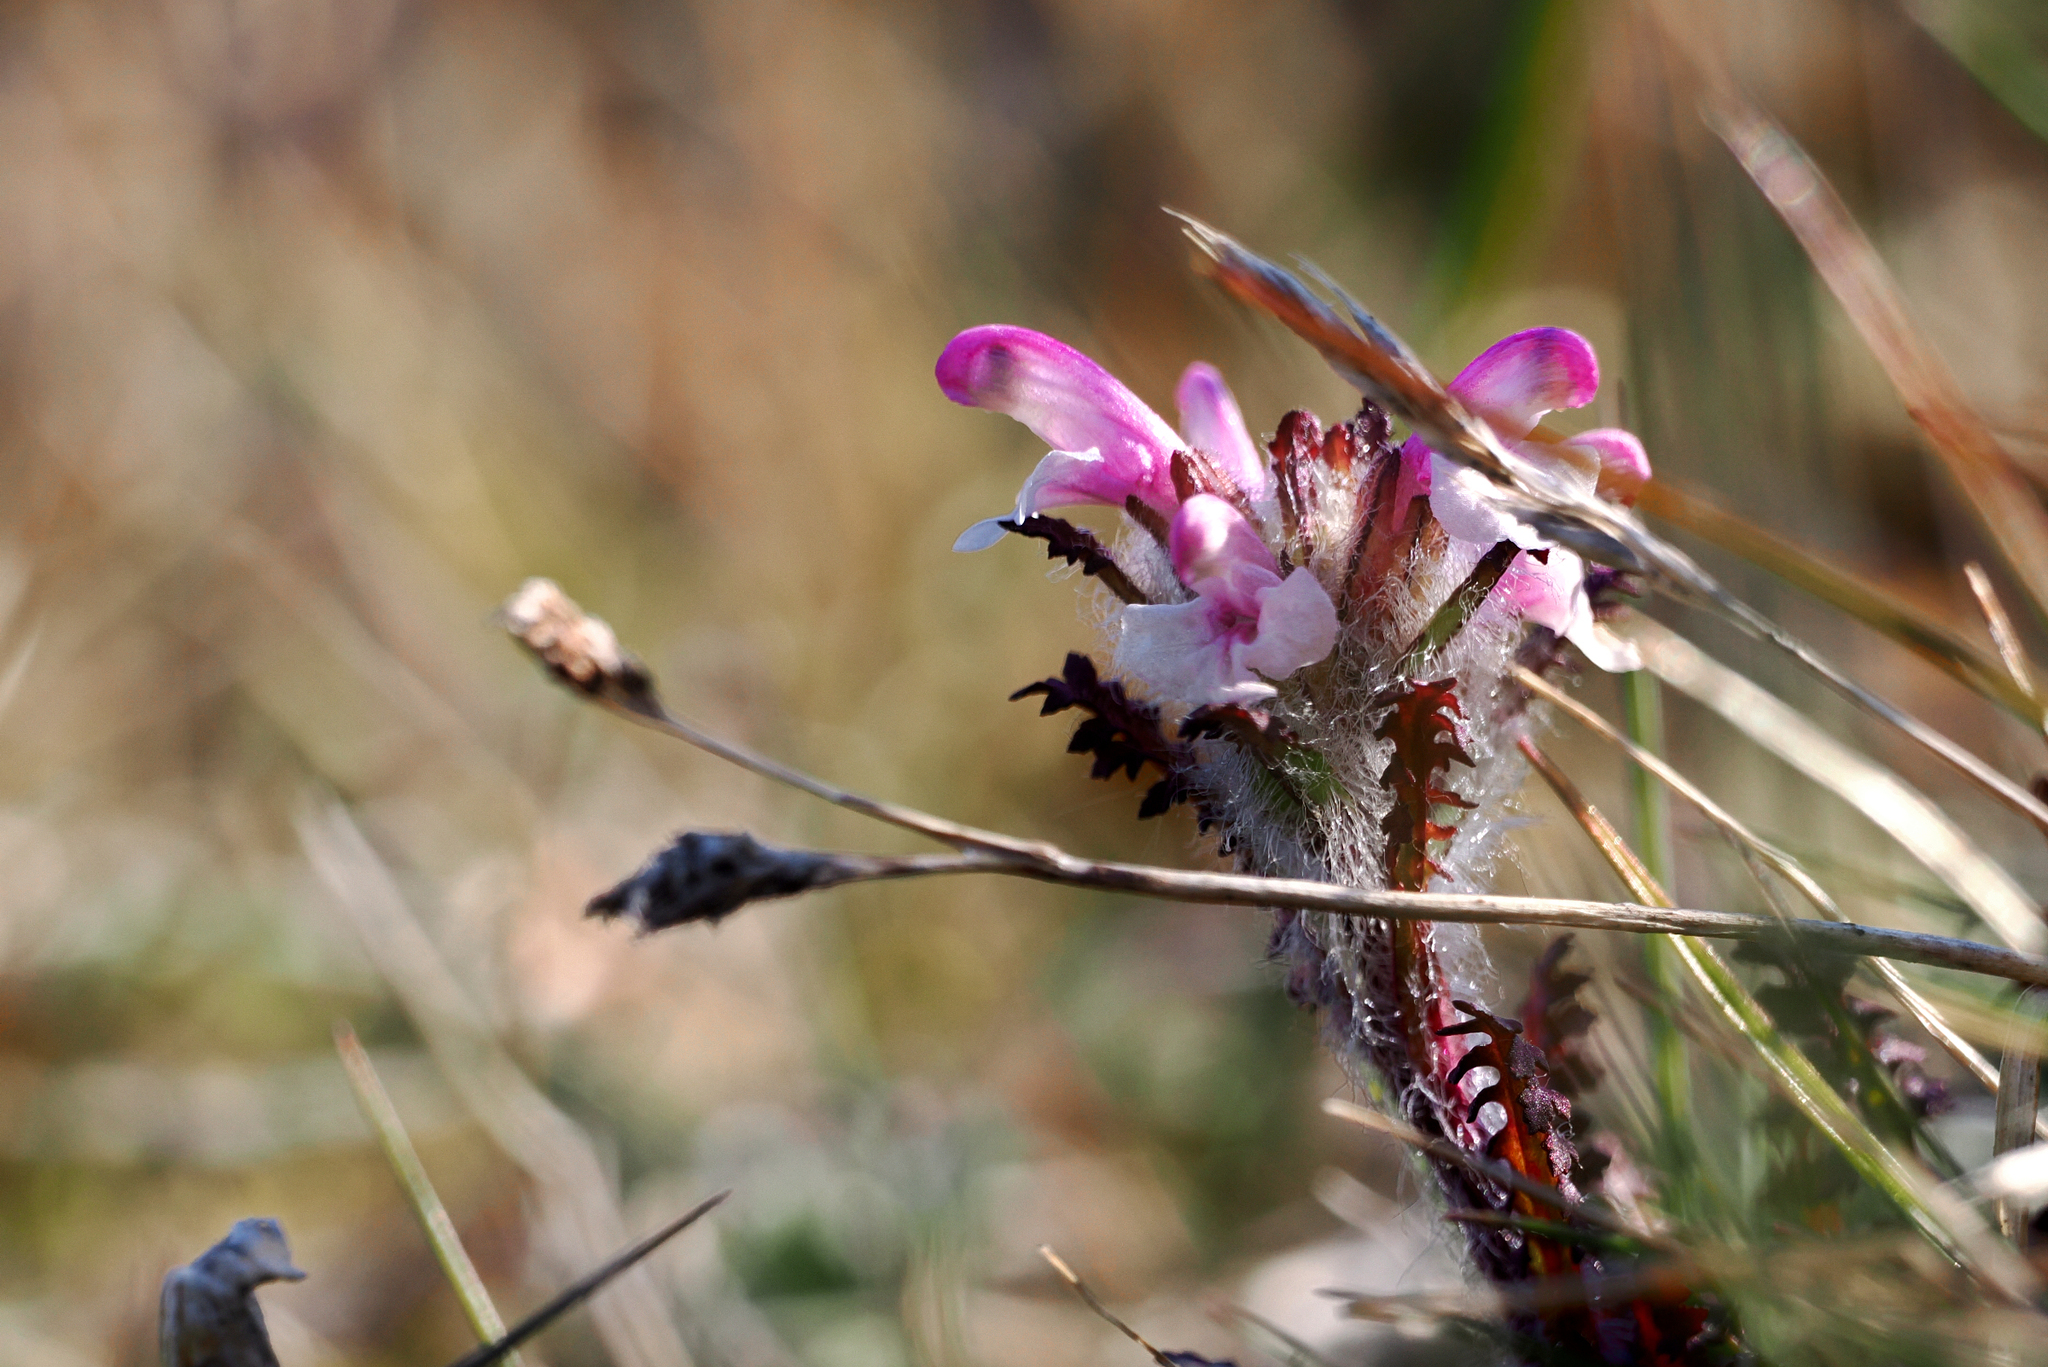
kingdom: Plantae
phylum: Tracheophyta
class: Magnoliopsida
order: Lamiales
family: Orobanchaceae
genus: Pedicularis
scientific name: Pedicularis hirsuta
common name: Hairy lousewort
